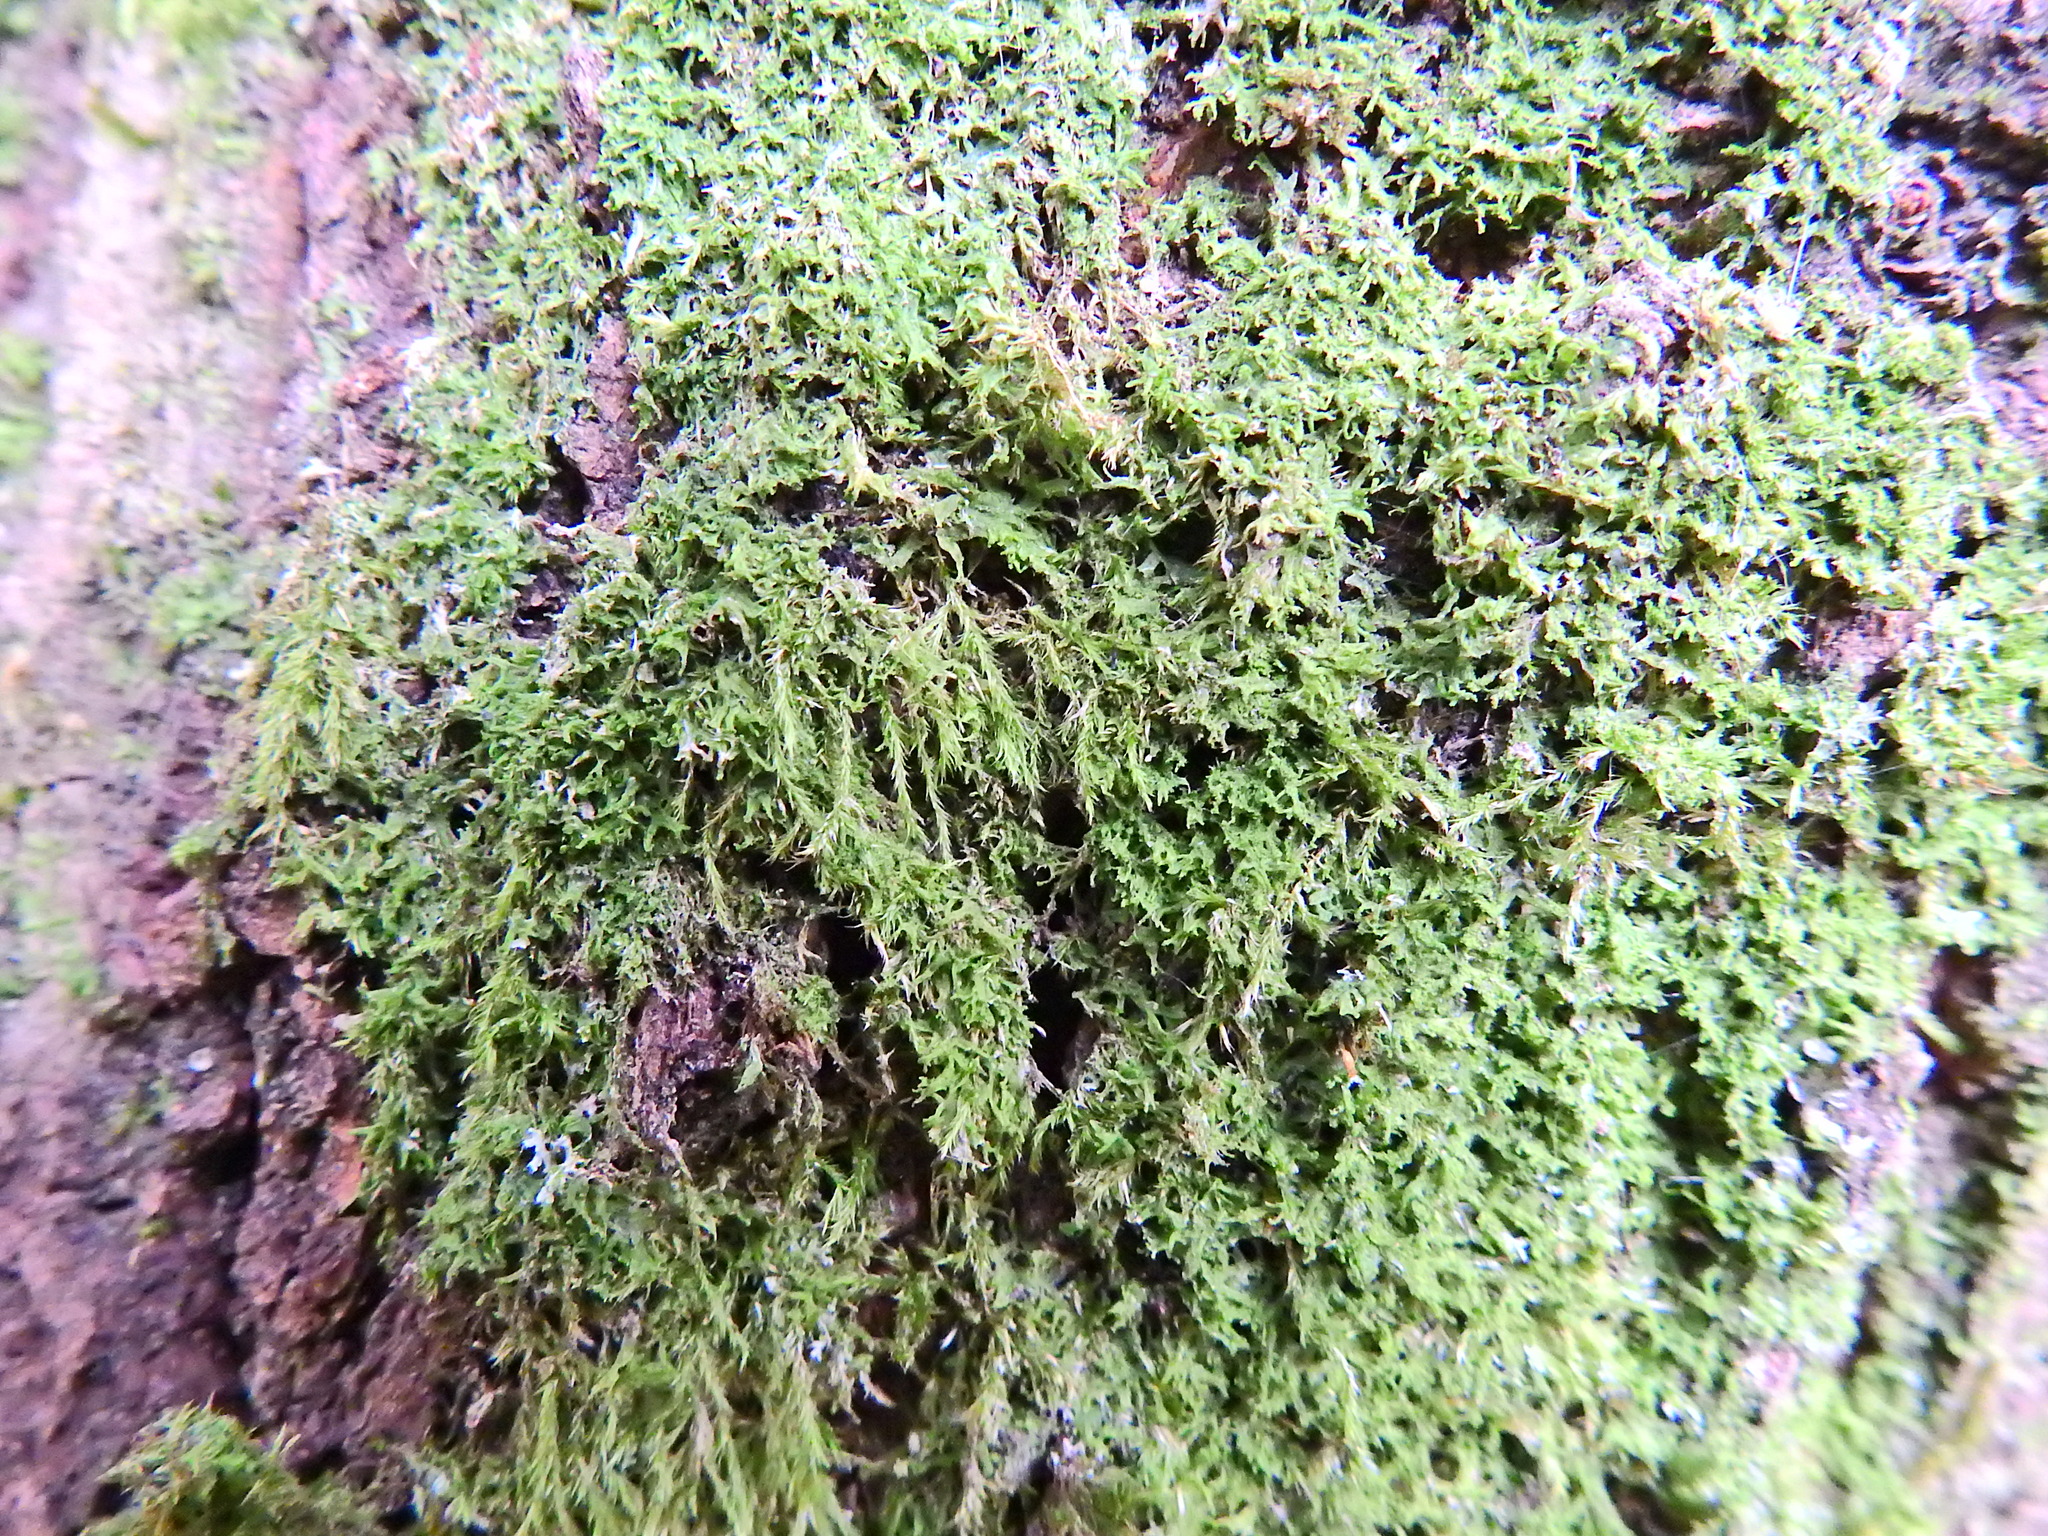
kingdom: Plantae
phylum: Marchantiophyta
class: Jungermanniopsida
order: Metzgeriales
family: Metzgeriaceae
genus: Metzgeria
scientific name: Metzgeria furcata
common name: Forked veilwort
